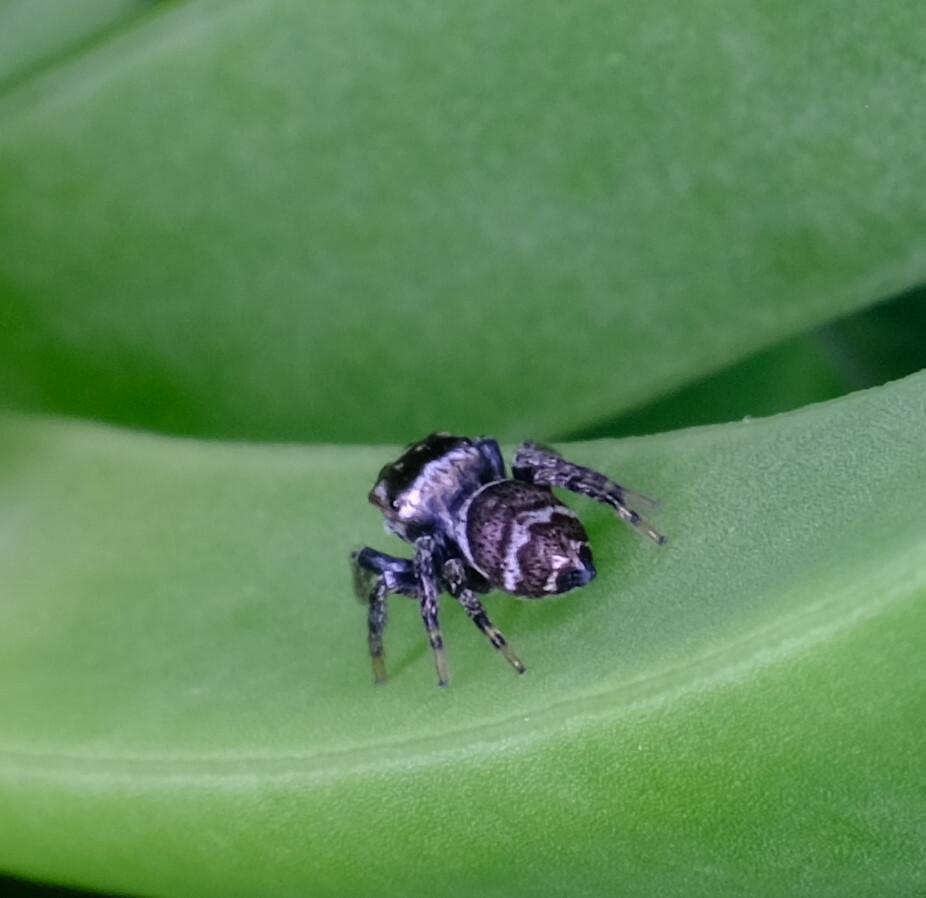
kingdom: Animalia
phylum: Arthropoda
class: Arachnida
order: Araneae
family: Salticidae
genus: Euryattus
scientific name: Euryattus bleekeri
